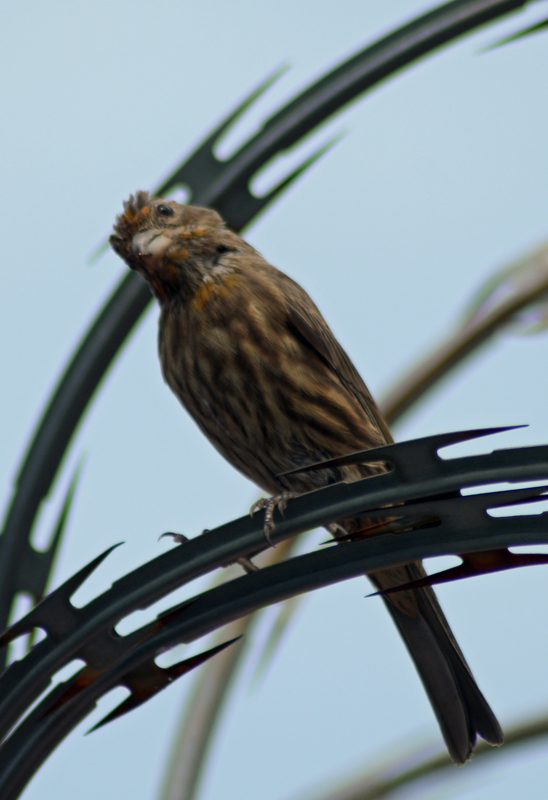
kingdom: Animalia
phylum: Chordata
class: Aves
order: Passeriformes
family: Fringillidae
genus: Haemorhous
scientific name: Haemorhous mexicanus
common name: House finch
